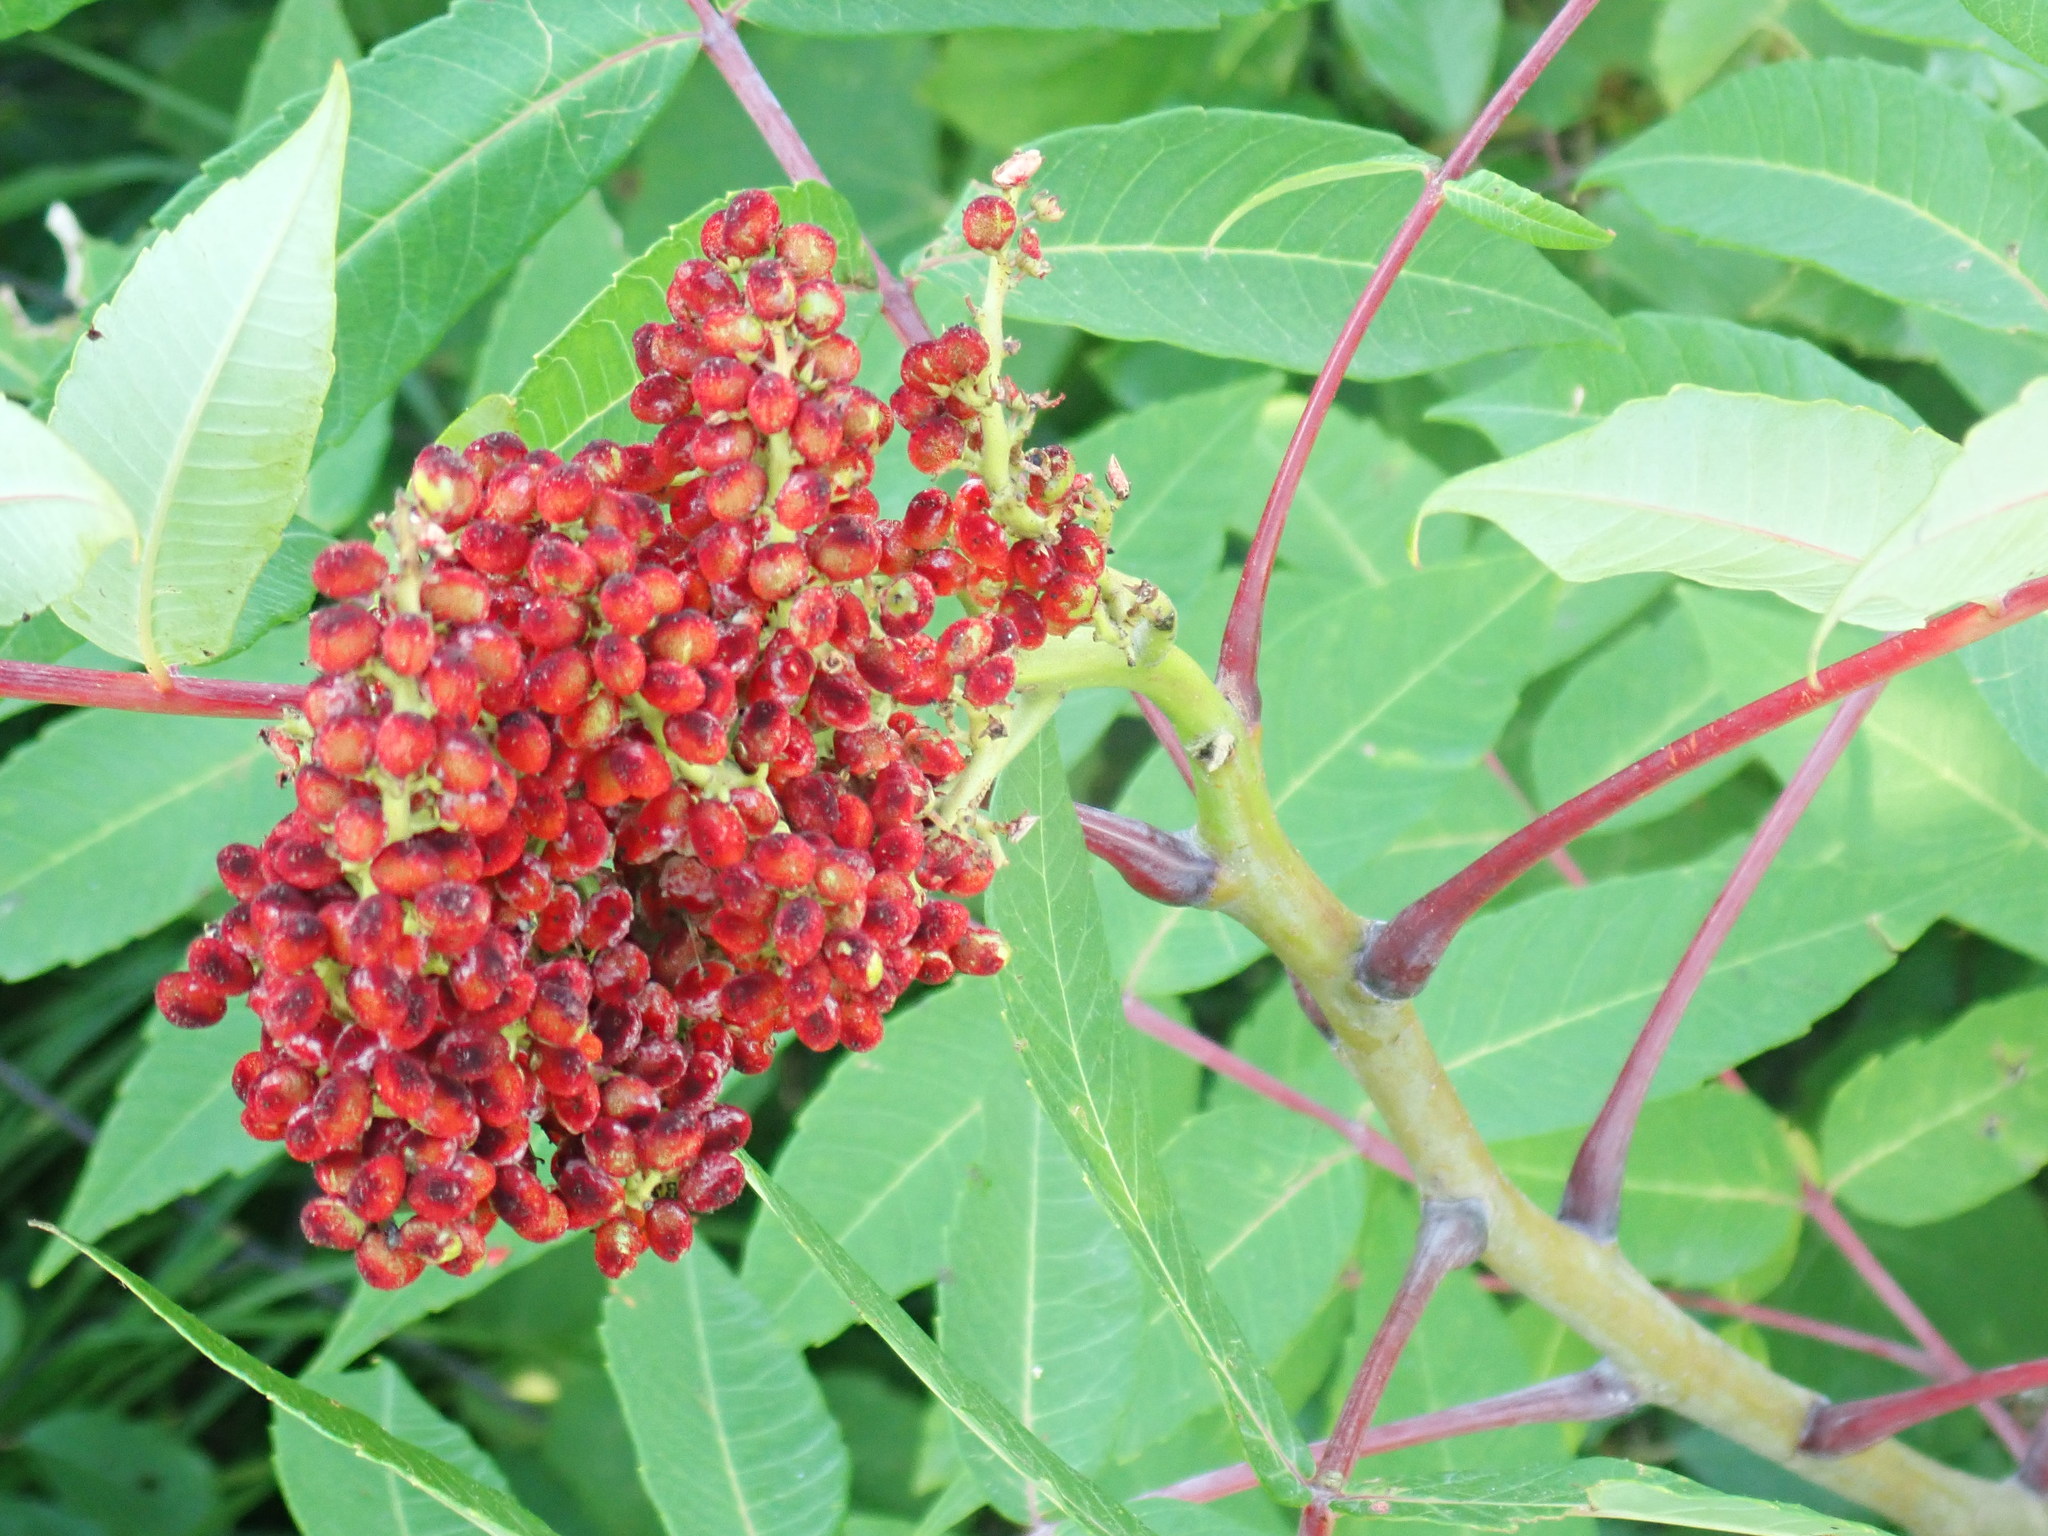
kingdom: Plantae
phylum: Tracheophyta
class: Magnoliopsida
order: Sapindales
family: Anacardiaceae
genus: Rhus
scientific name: Rhus glabra
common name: Scarlet sumac
